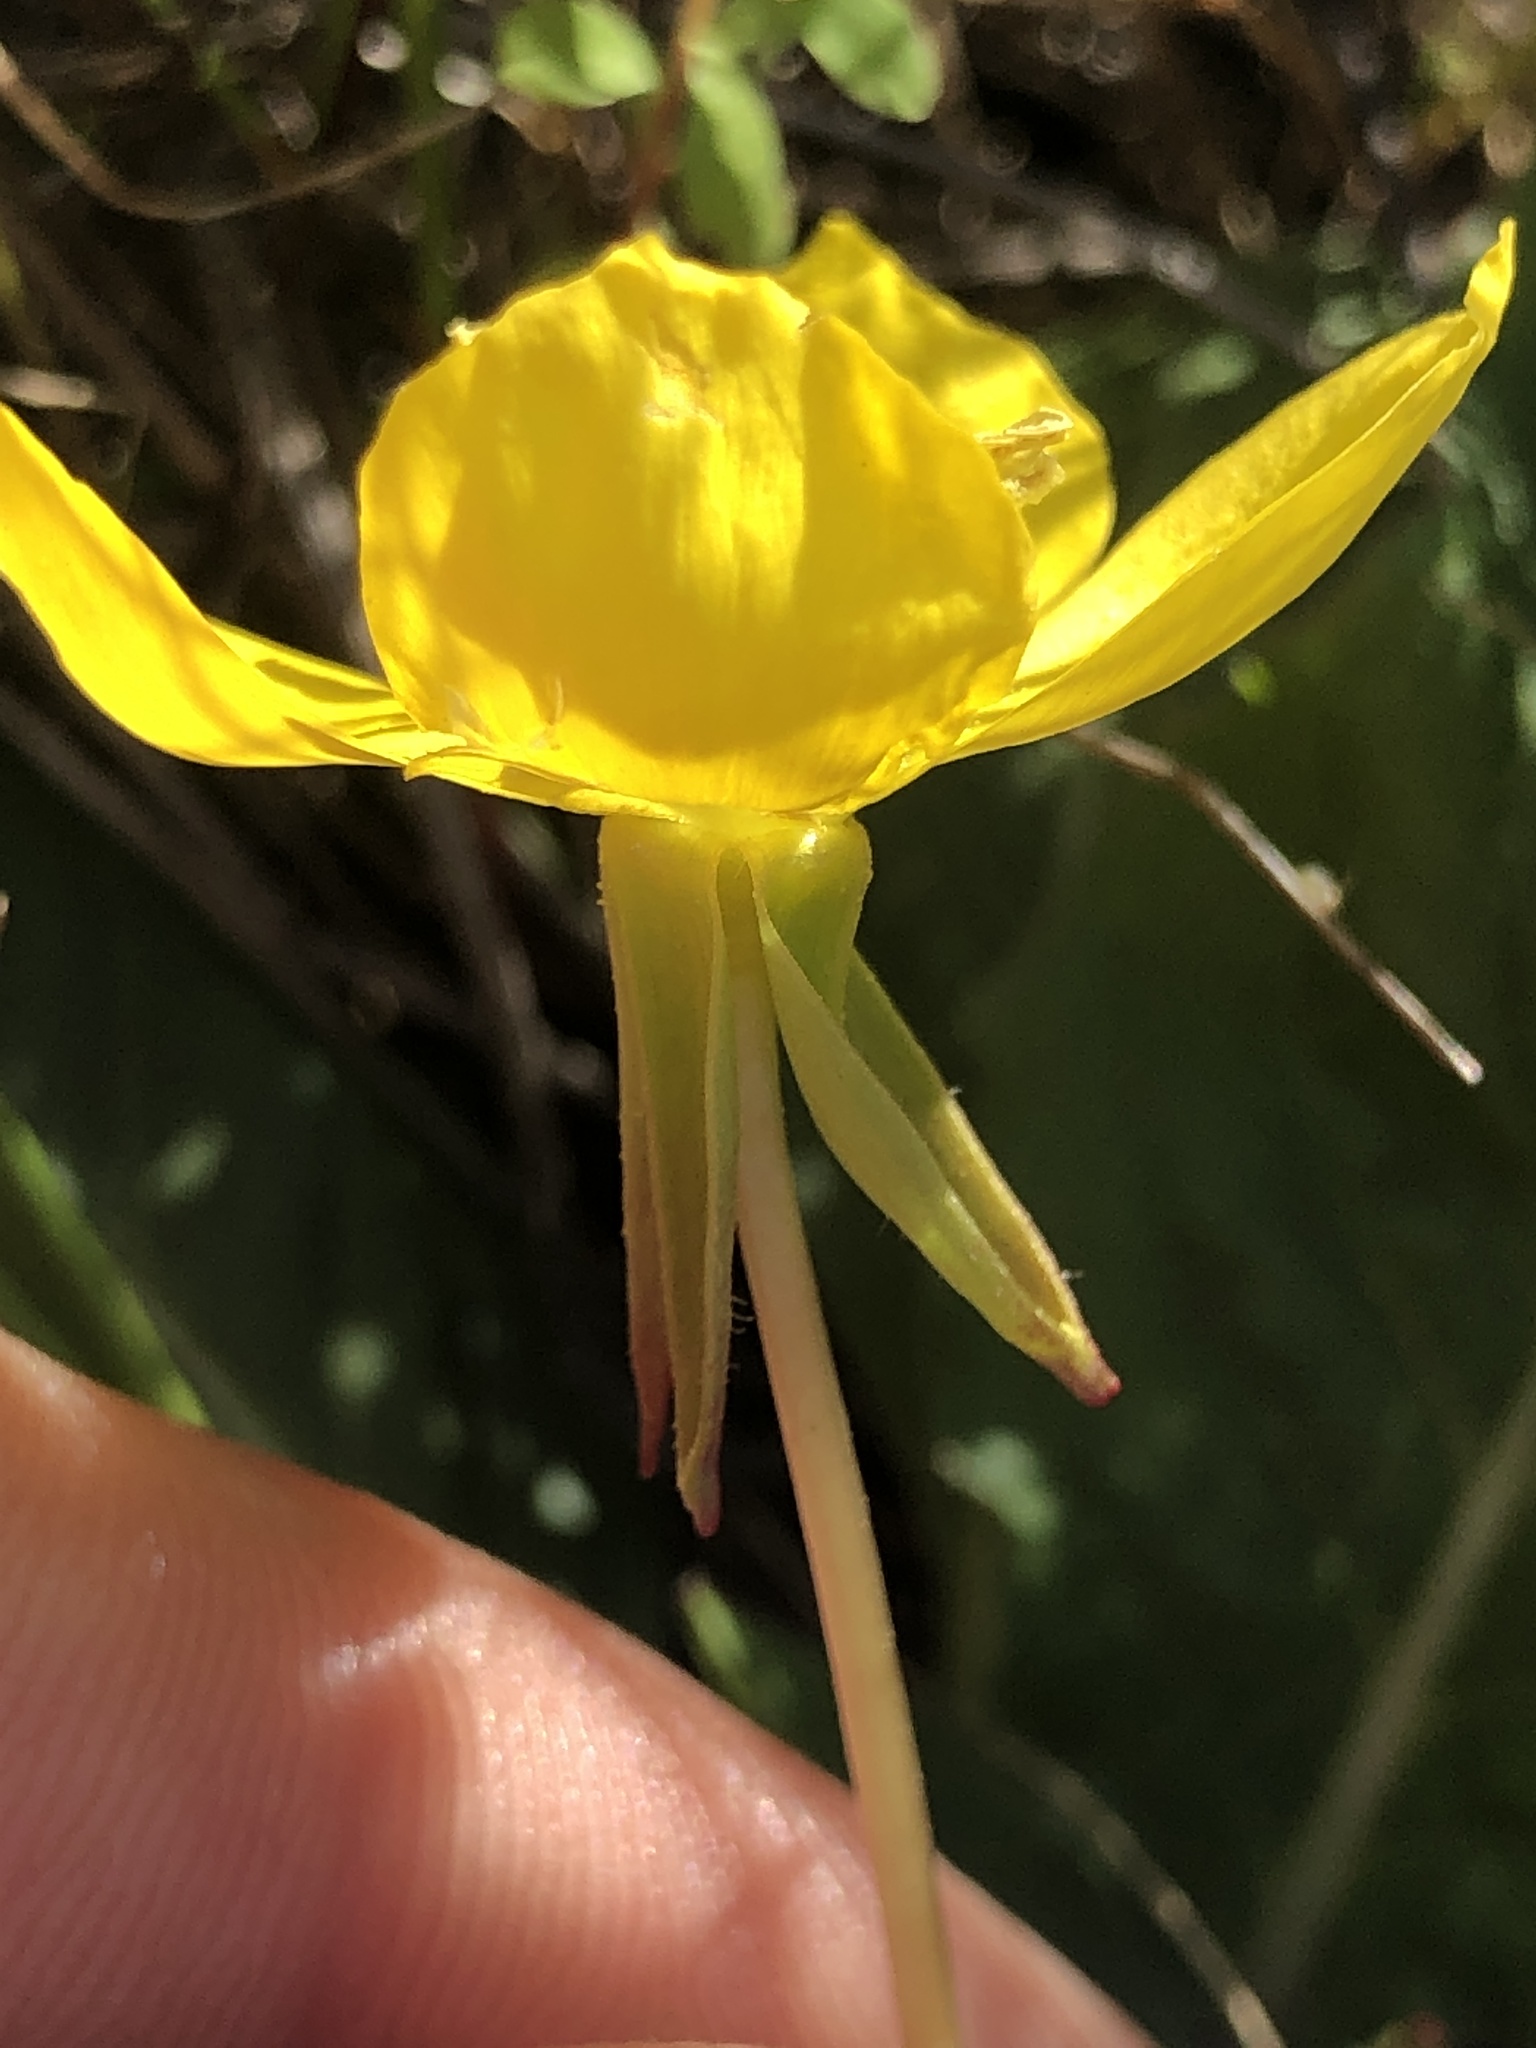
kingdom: Plantae
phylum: Tracheophyta
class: Magnoliopsida
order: Myrtales
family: Onagraceae
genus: Taraxia
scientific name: Taraxia ovata
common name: Goldeneggs
